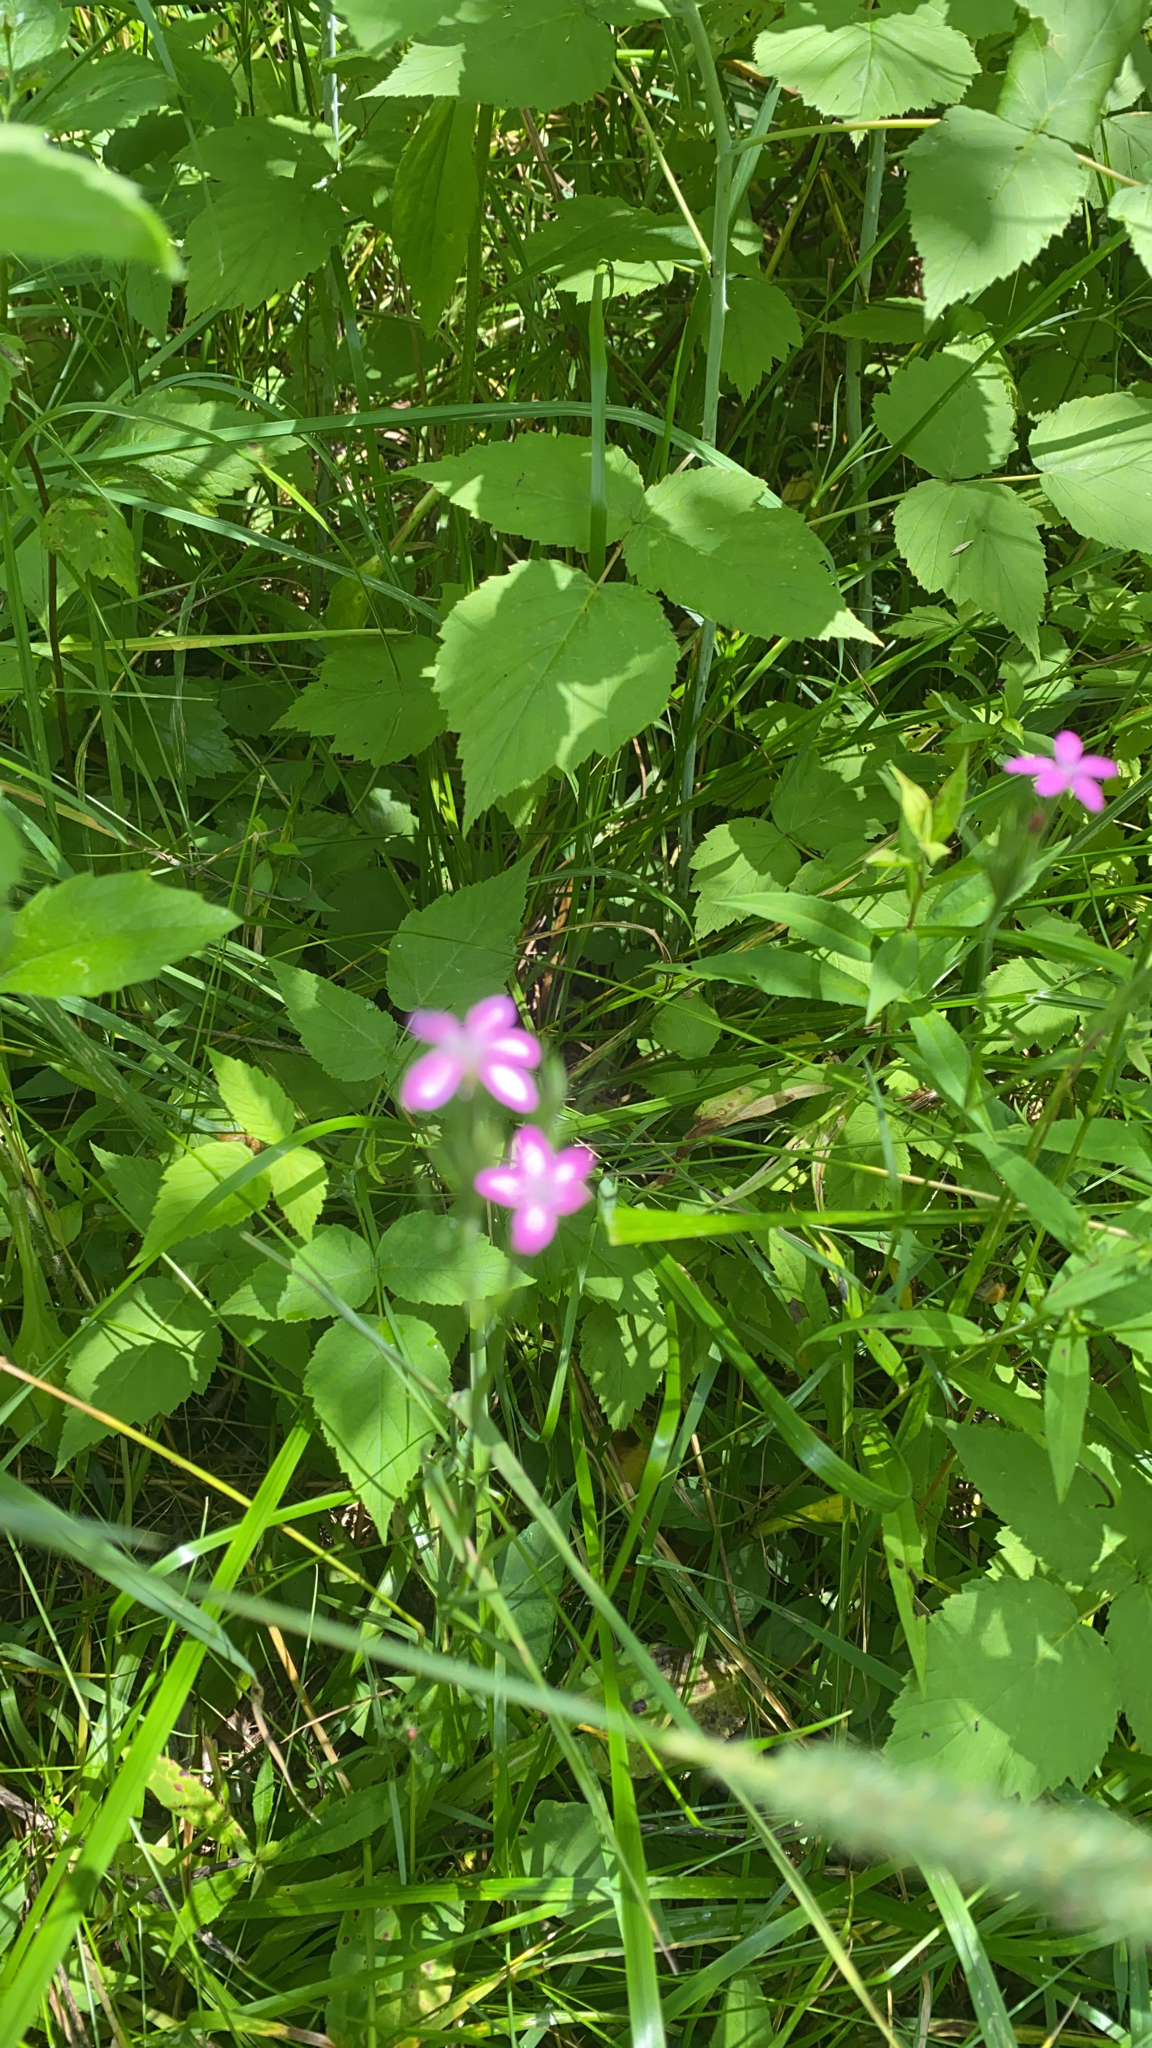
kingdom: Plantae
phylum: Tracheophyta
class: Magnoliopsida
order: Caryophyllales
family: Caryophyllaceae
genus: Dianthus
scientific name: Dianthus armeria
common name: Deptford pink
